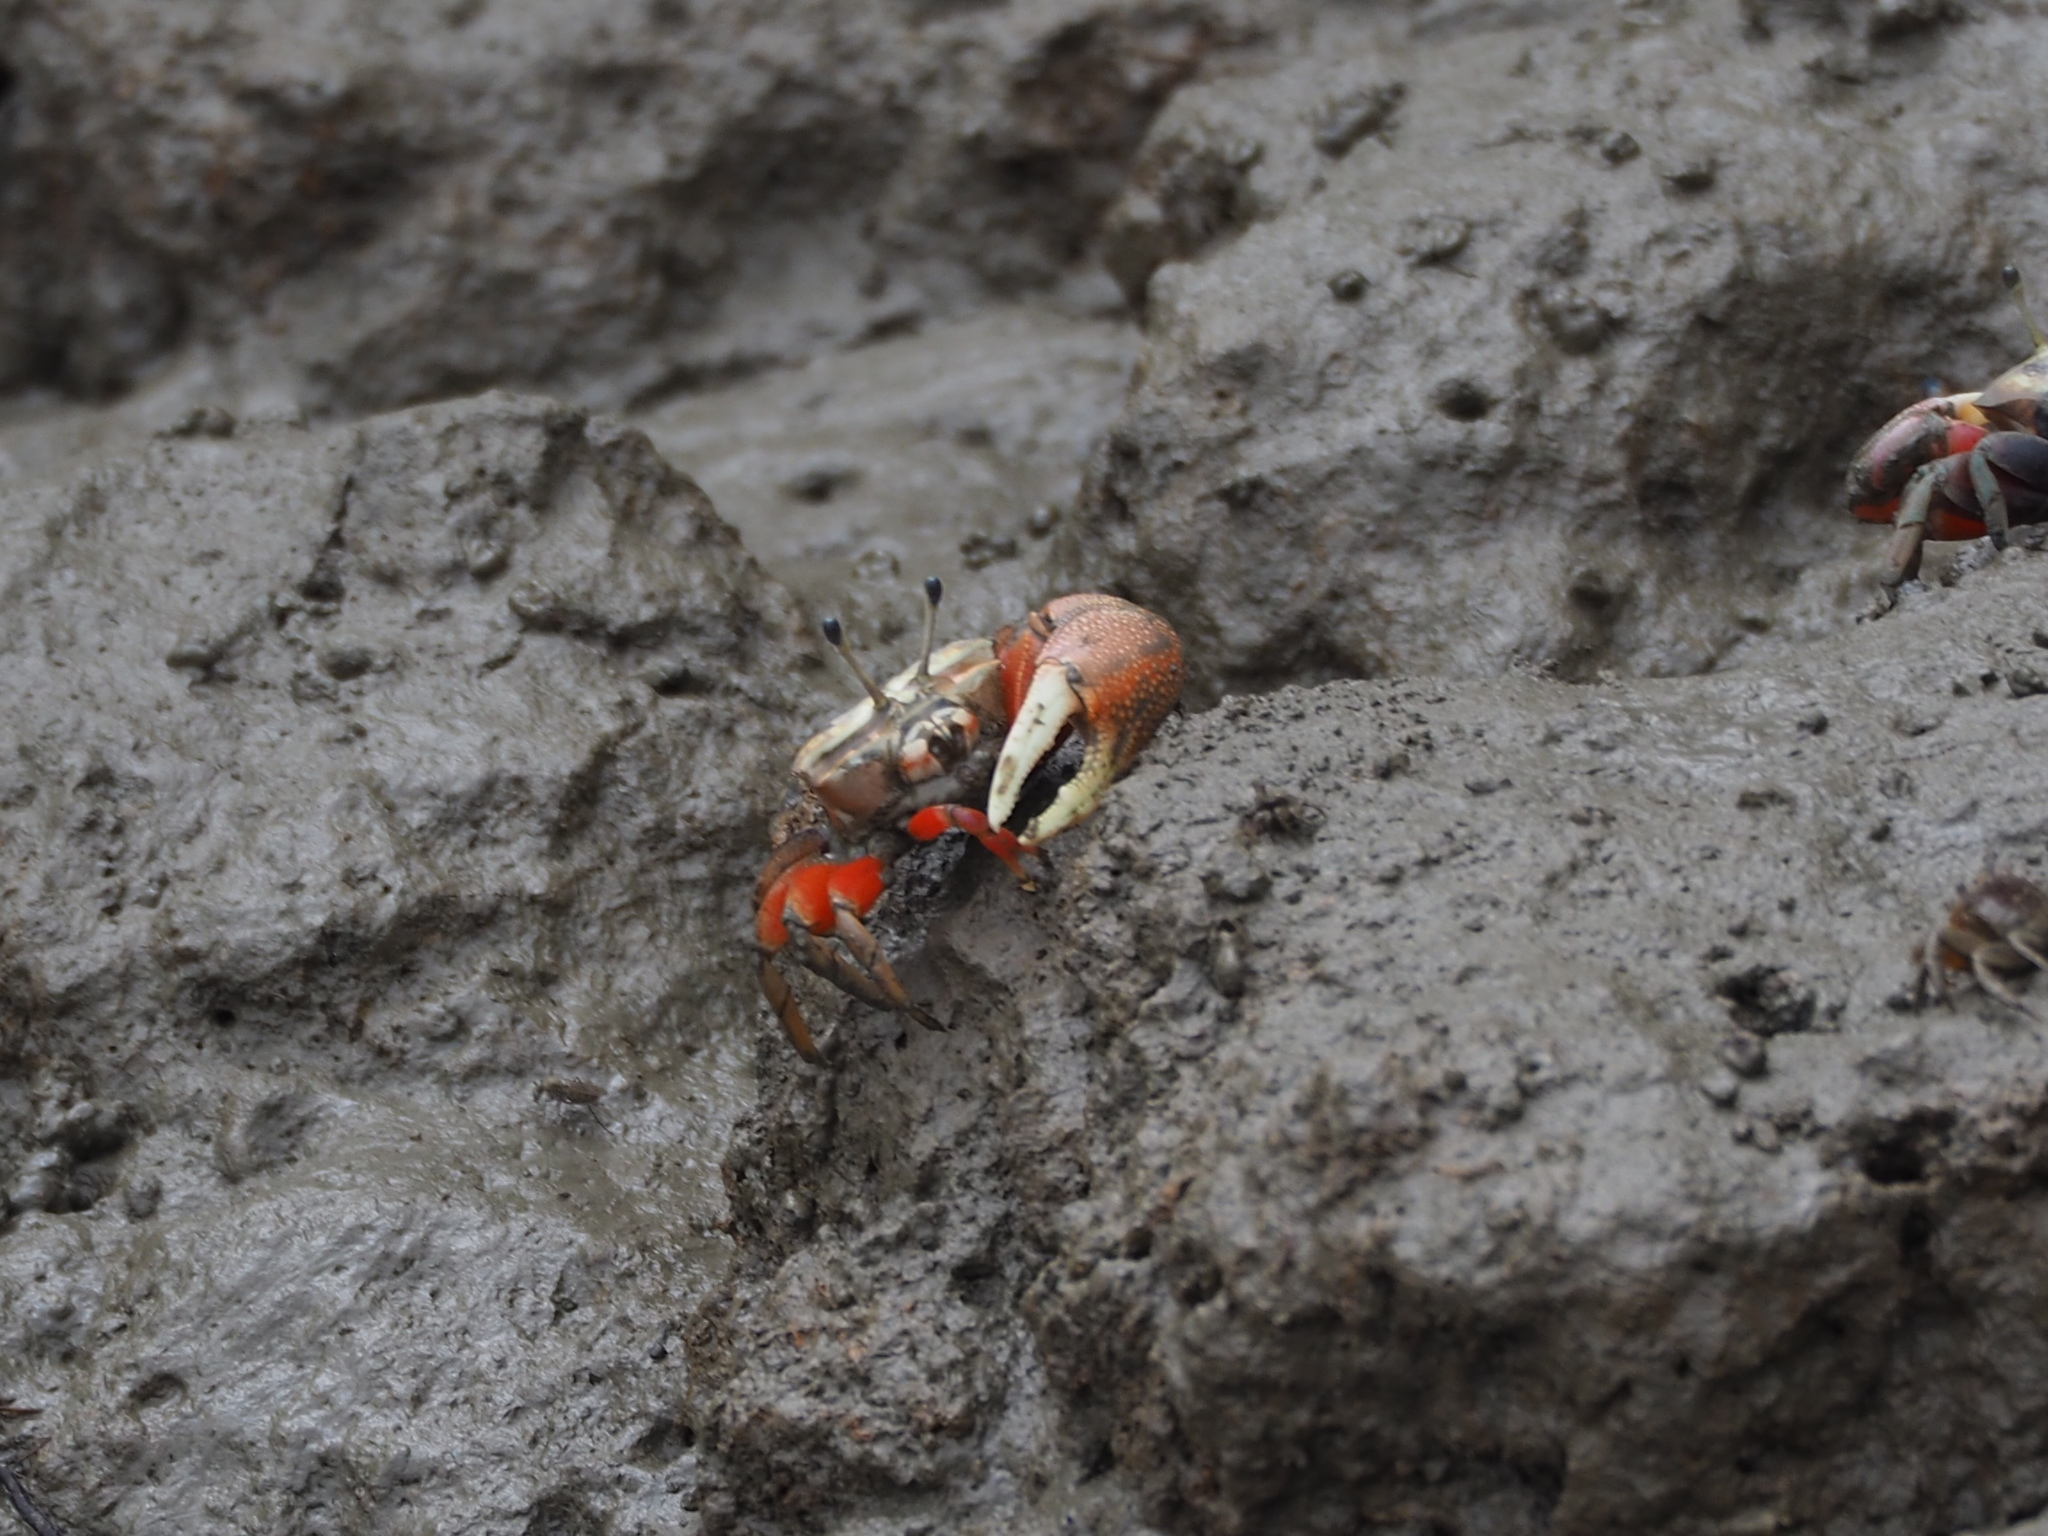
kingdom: Animalia
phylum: Arthropoda
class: Malacostraca
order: Decapoda
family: Ocypodidae
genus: Tubuca
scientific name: Tubuca arcuata
